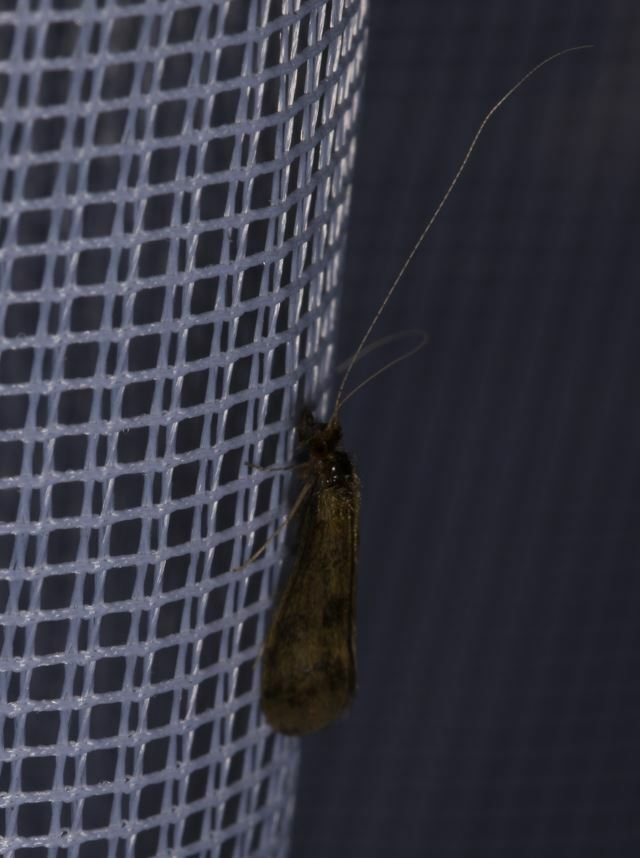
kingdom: Animalia
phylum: Arthropoda
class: Insecta
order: Trichoptera
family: Leptoceridae
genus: Mystacides
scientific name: Mystacides longicornis
